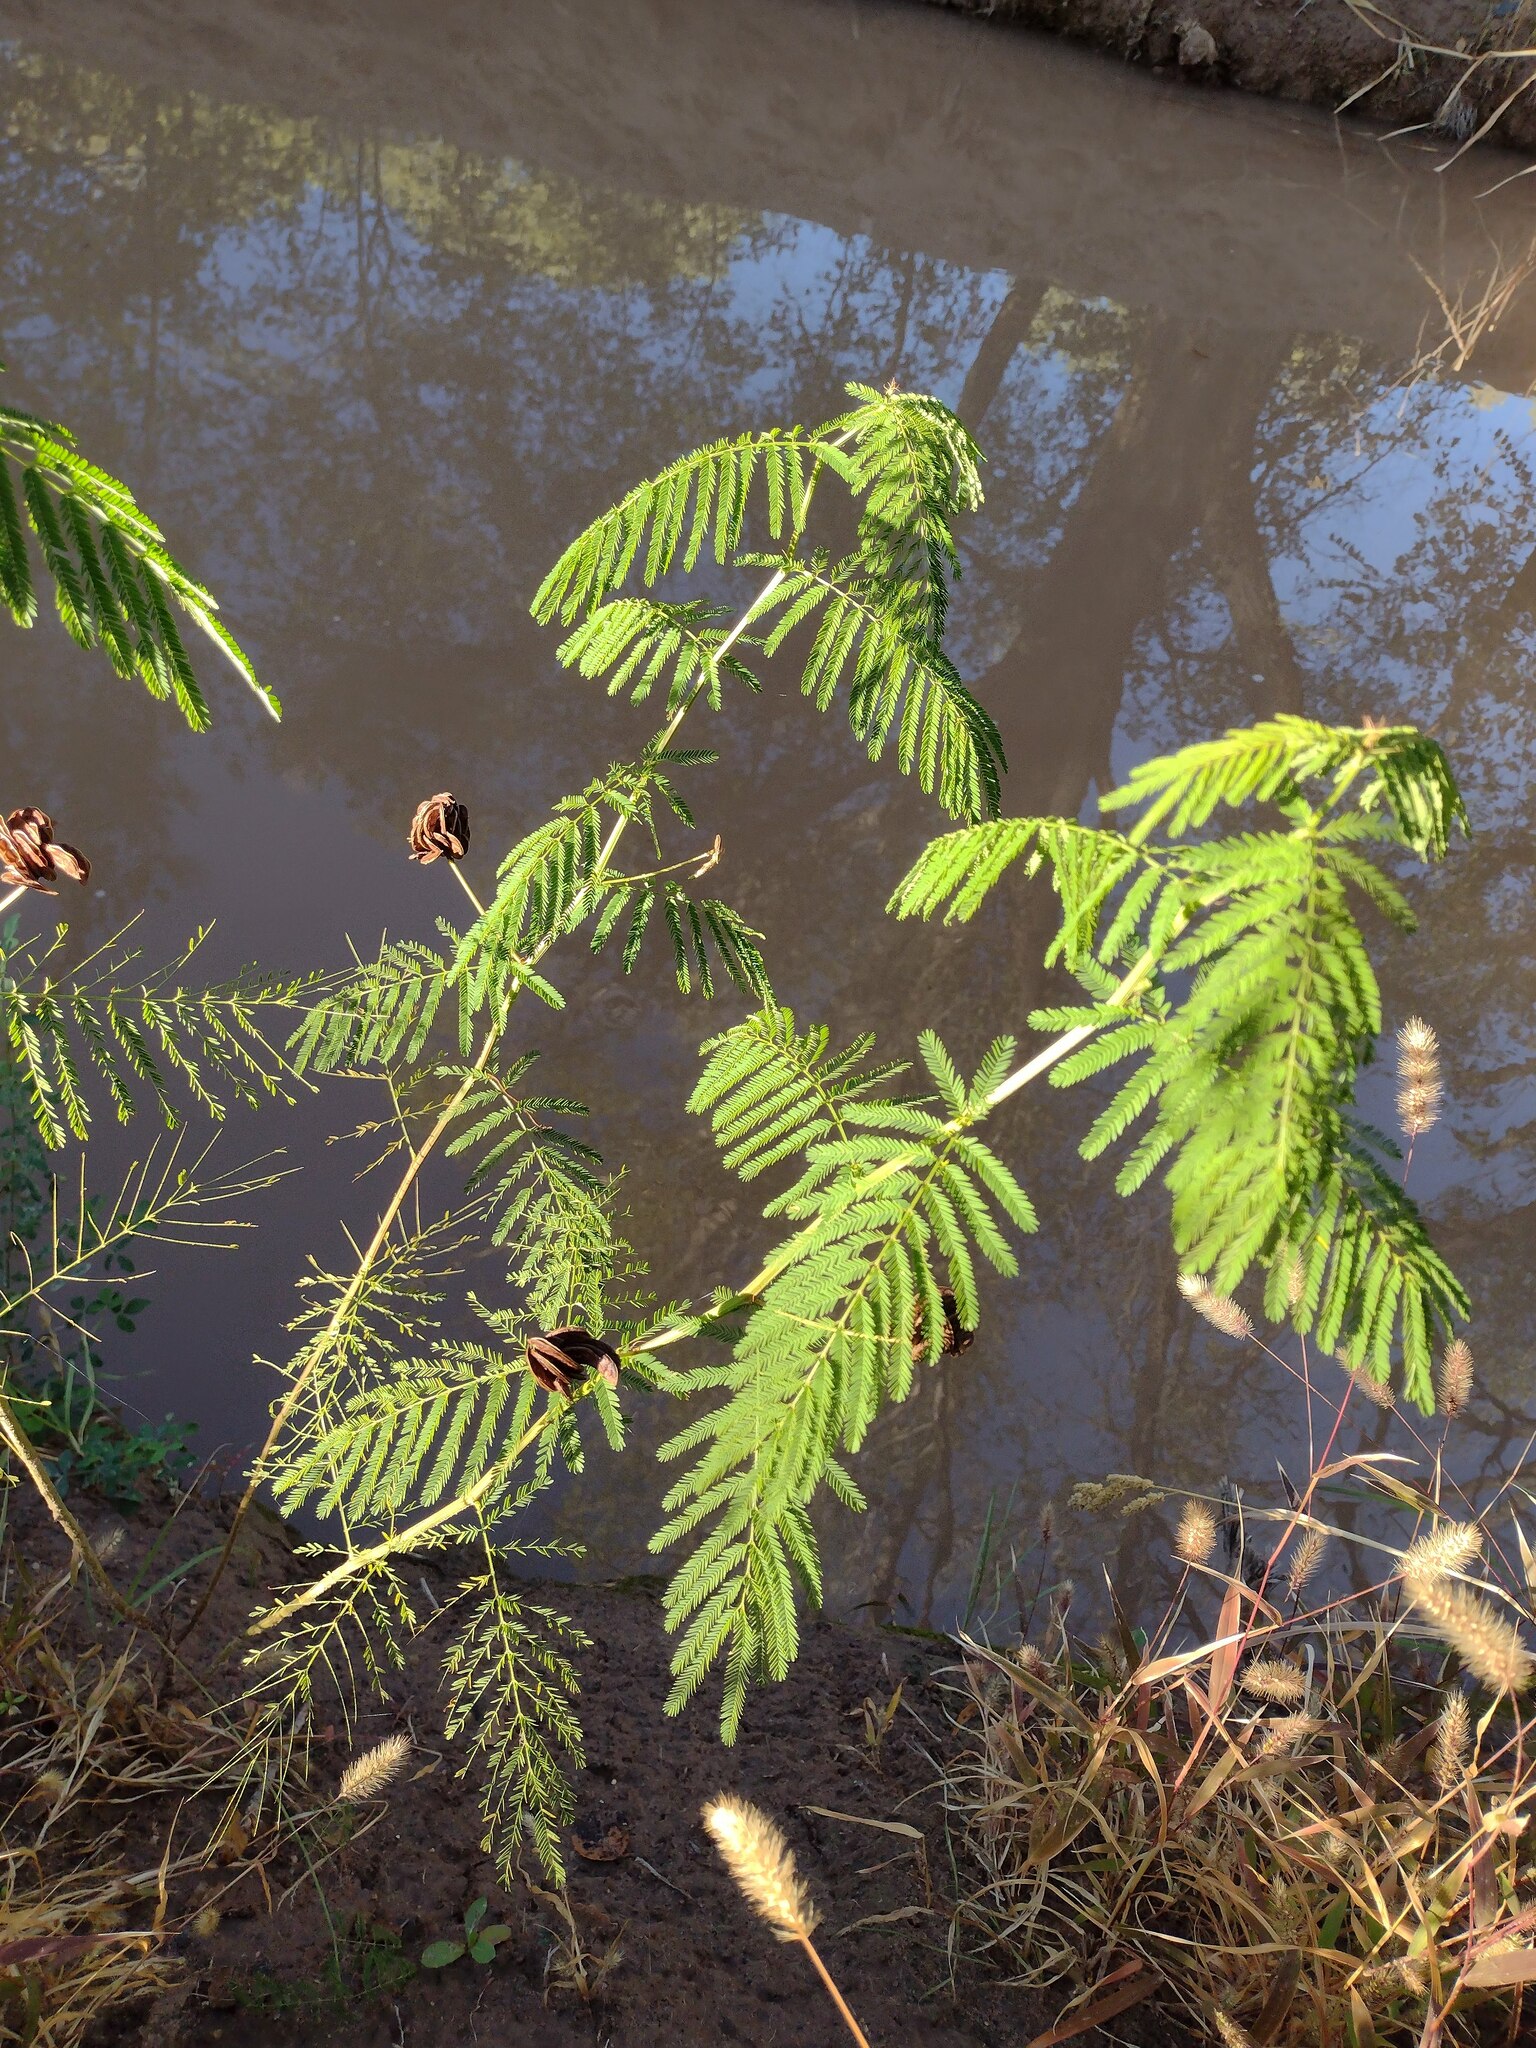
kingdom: Plantae
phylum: Tracheophyta
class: Magnoliopsida
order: Fabales
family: Fabaceae
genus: Desmanthus
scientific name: Desmanthus illinoensis
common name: Illinois bundle-flower
